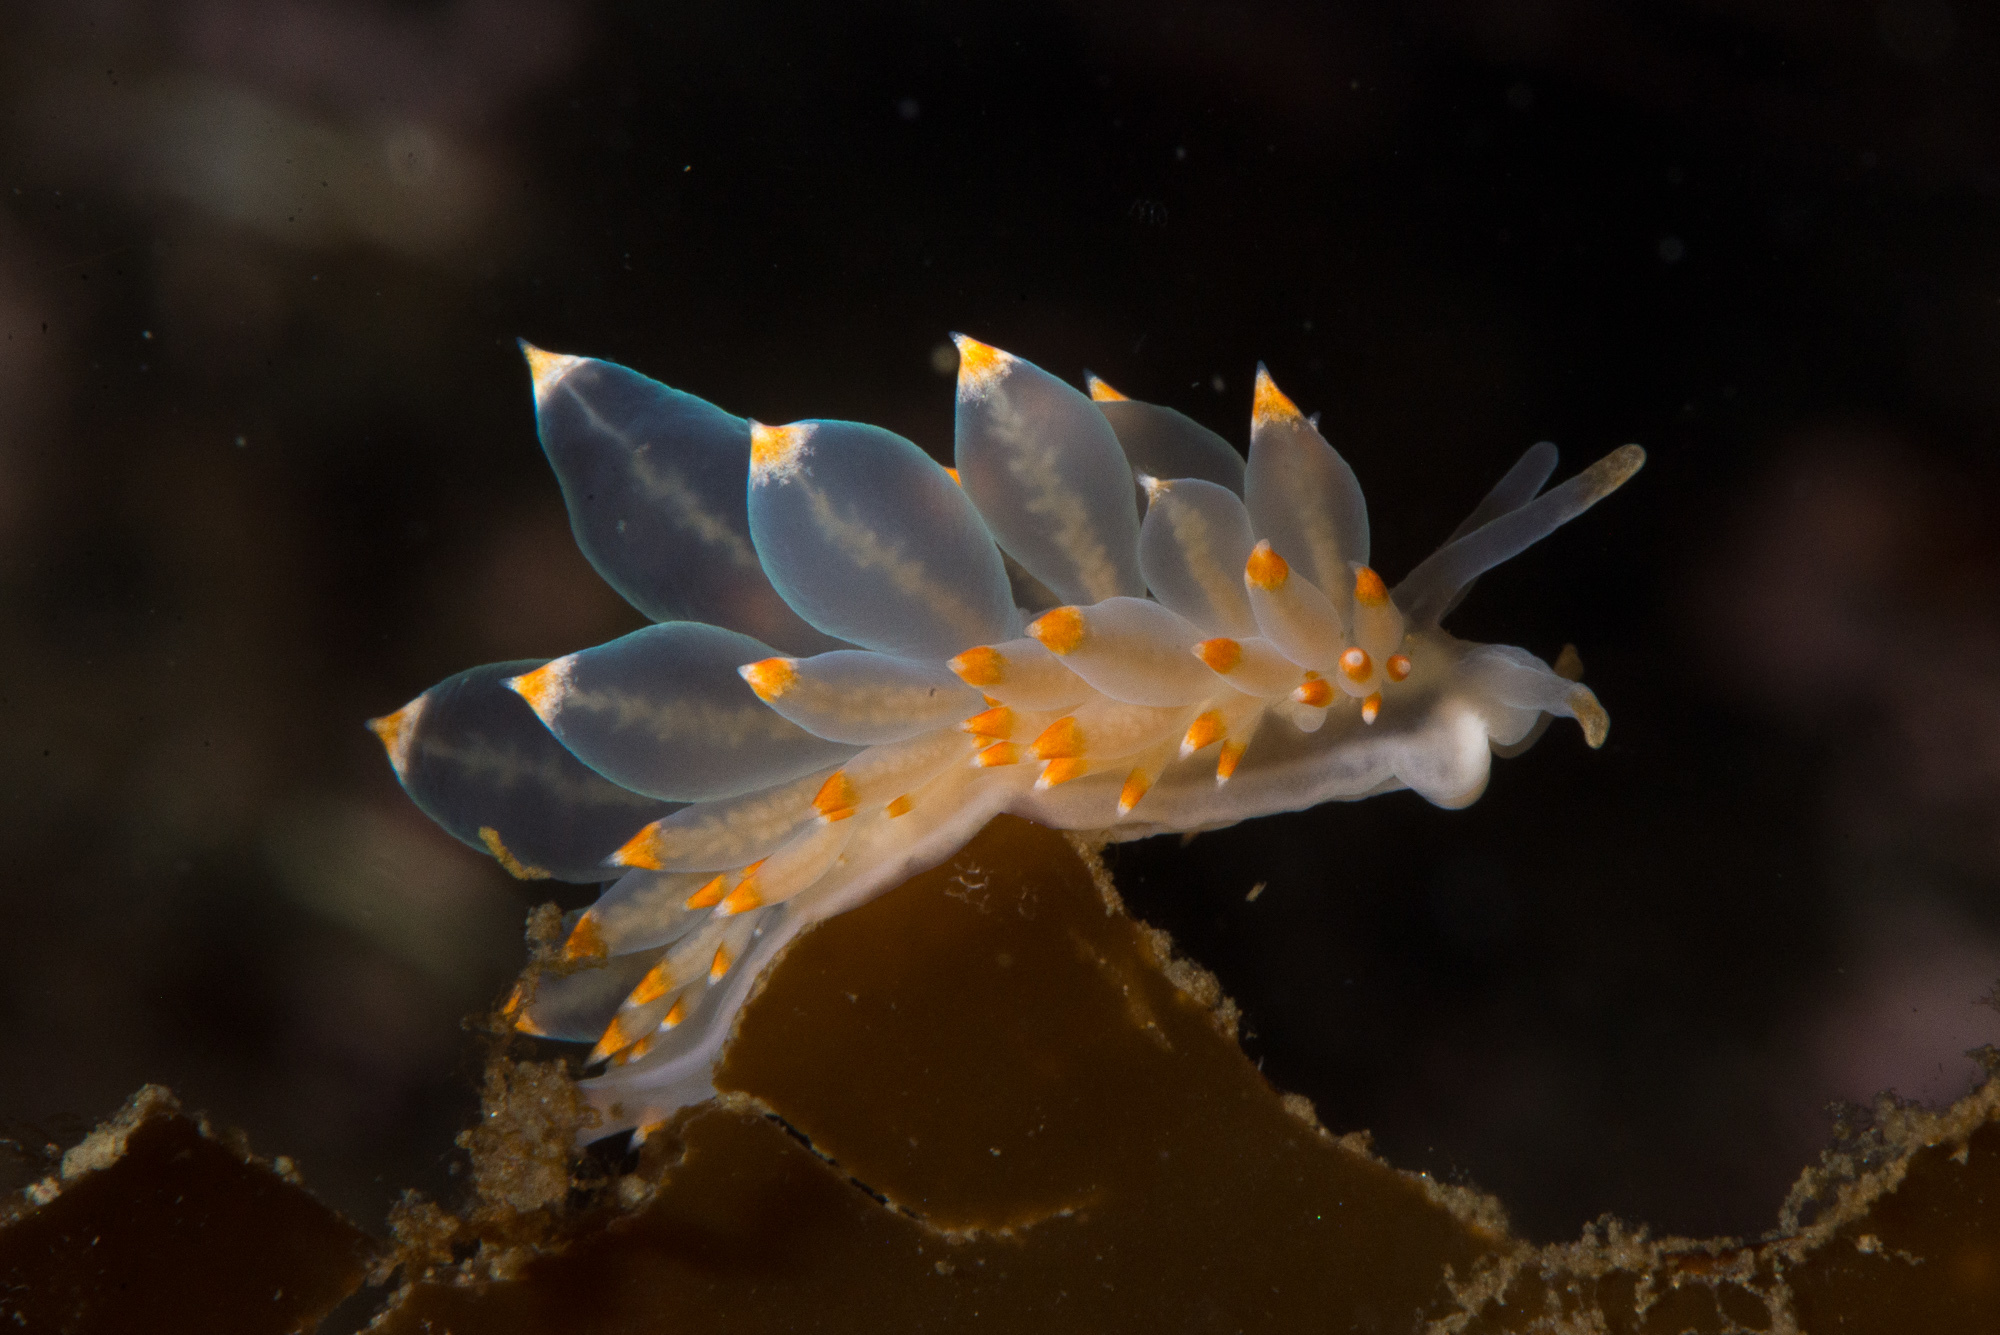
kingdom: Animalia
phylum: Mollusca
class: Gastropoda
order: Nudibranchia
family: Eubranchidae
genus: Amphorina
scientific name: Amphorina andra
